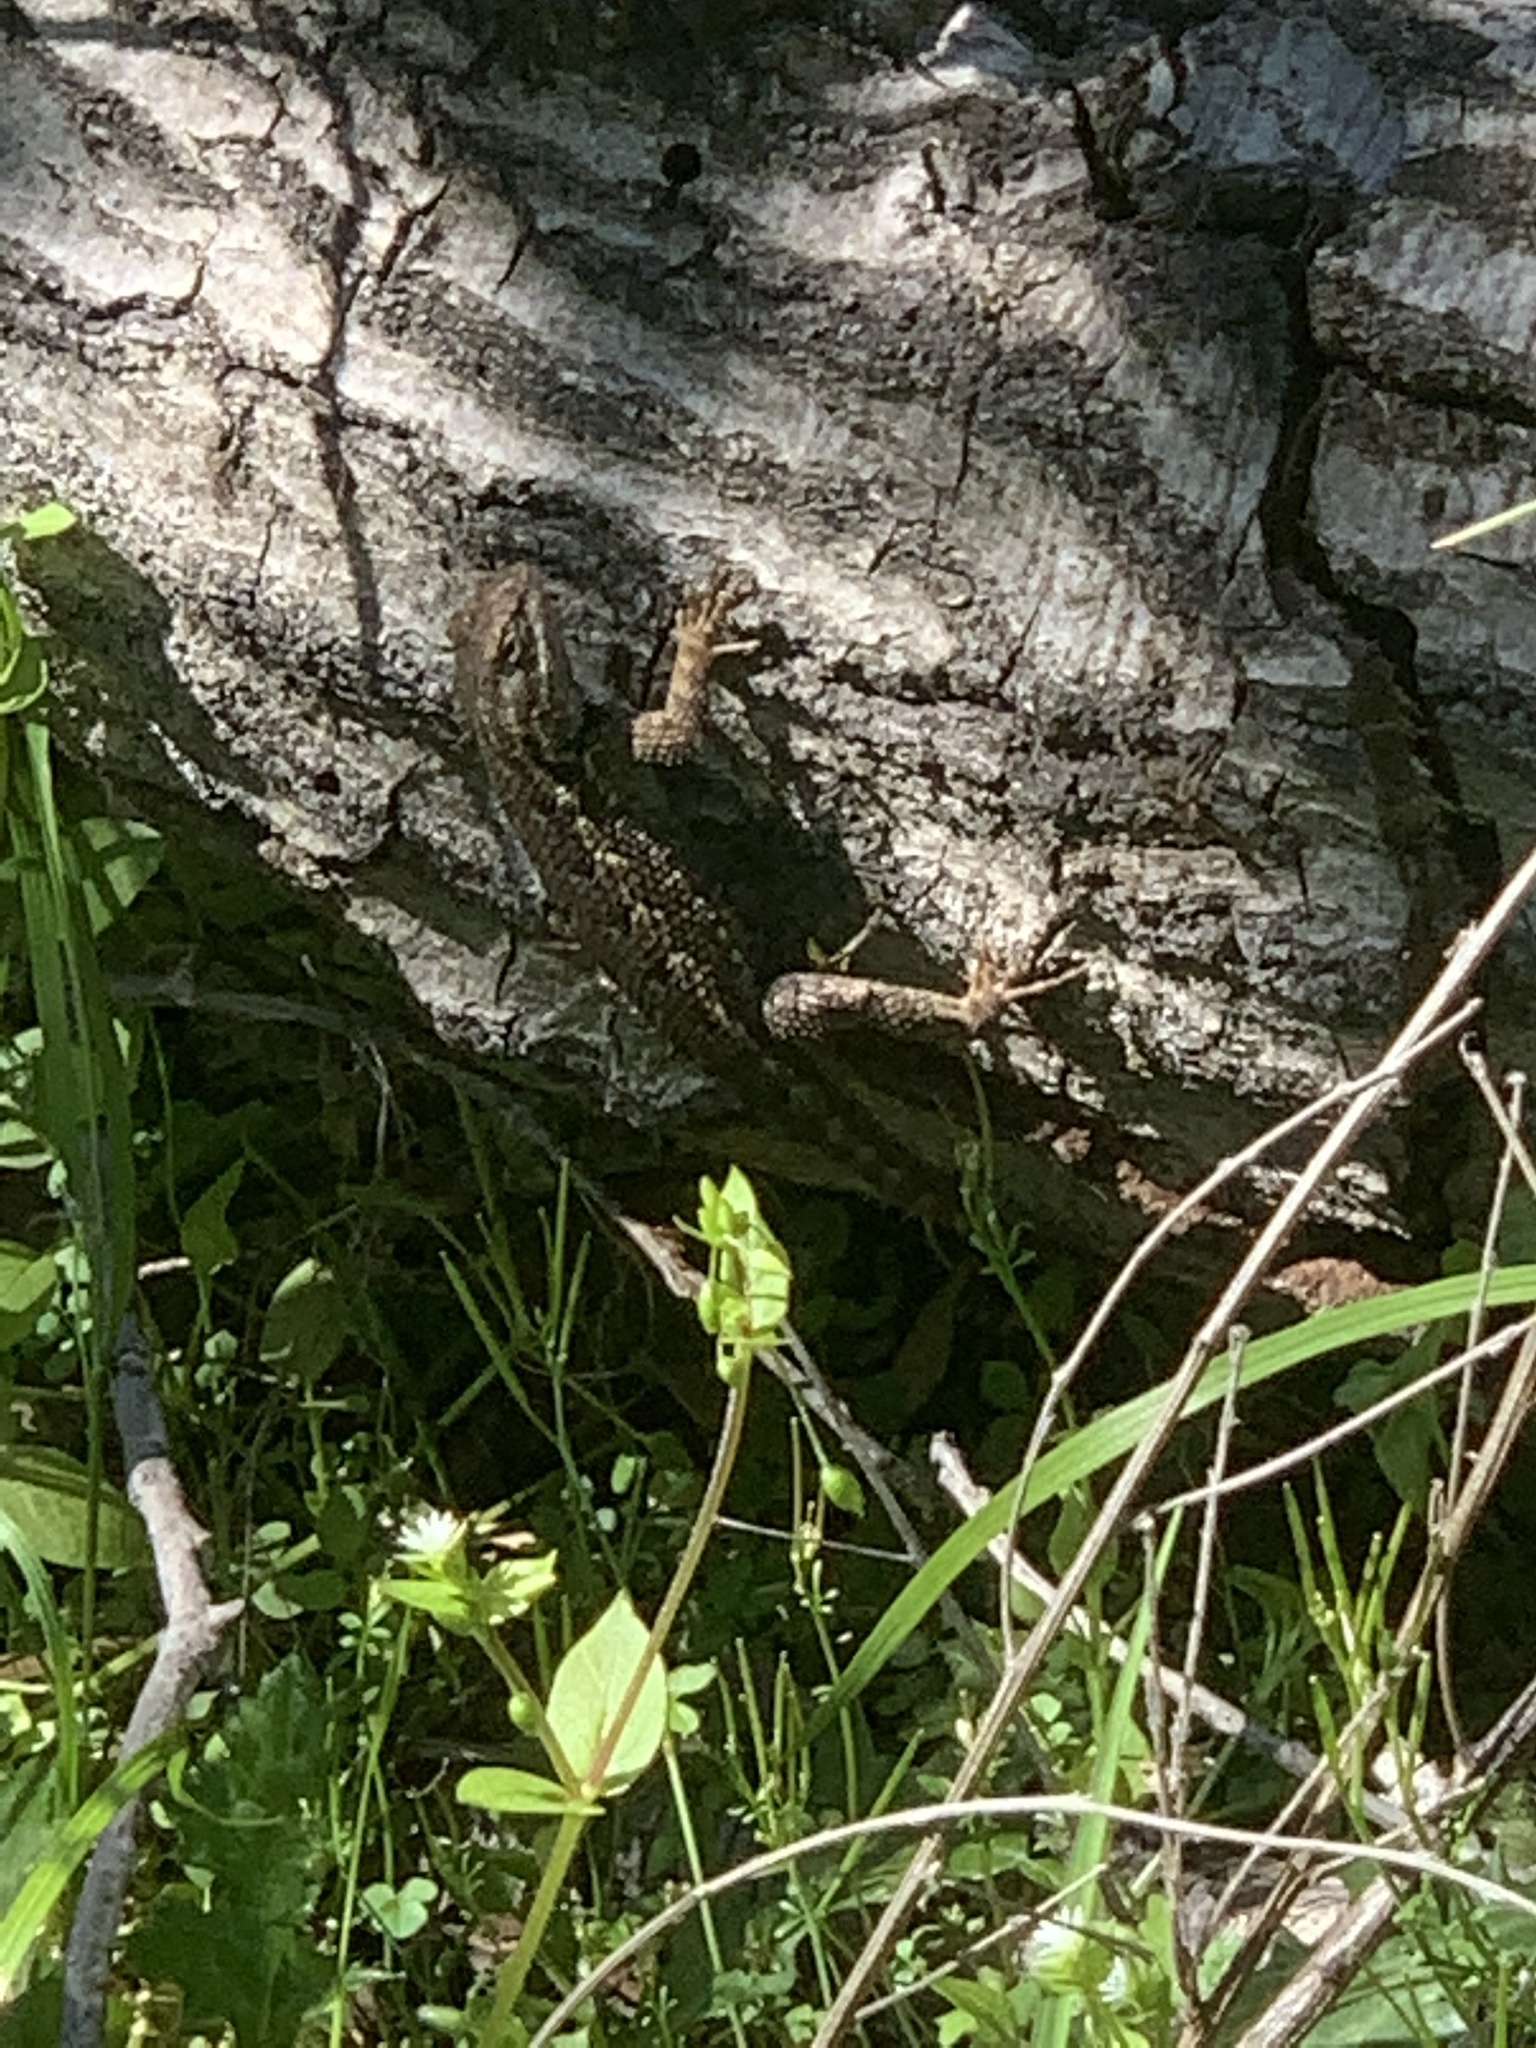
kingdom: Animalia
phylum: Chordata
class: Squamata
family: Phrynosomatidae
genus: Sceloporus
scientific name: Sceloporus occidentalis
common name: Western fence lizard
